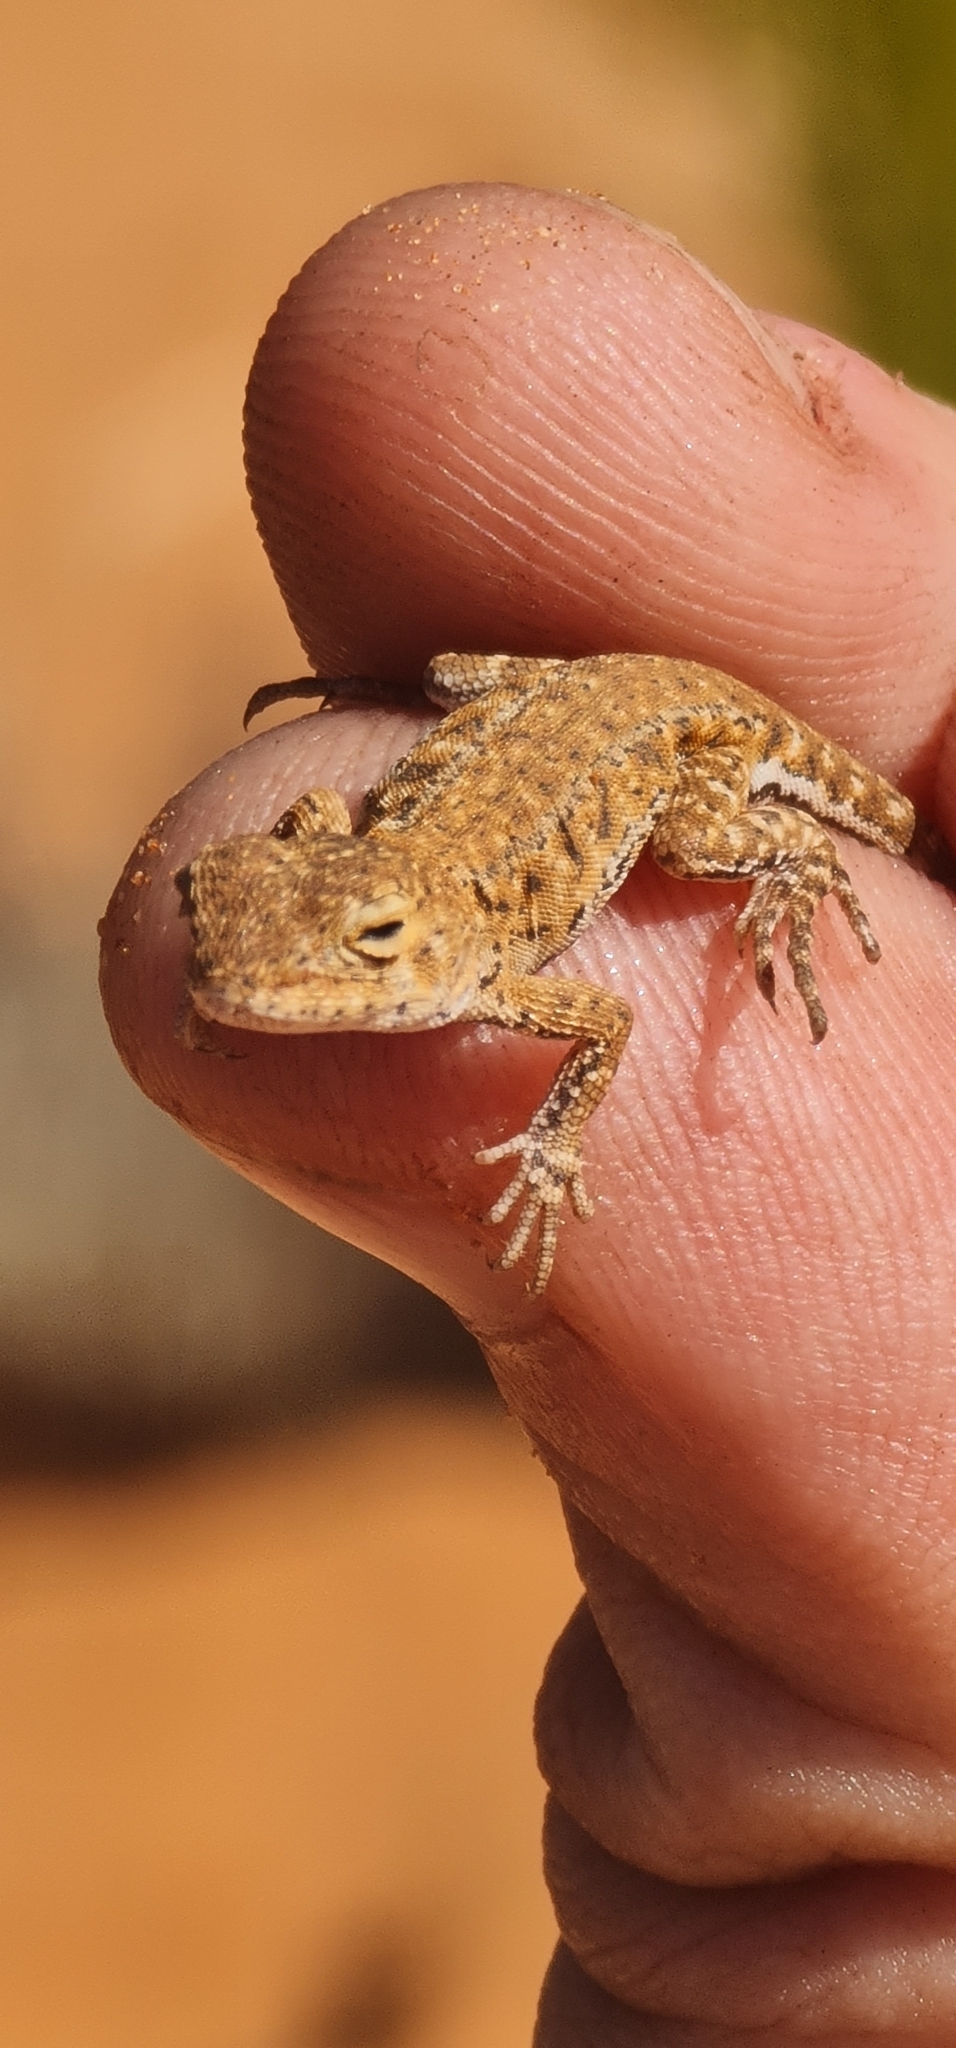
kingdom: Animalia
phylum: Chordata
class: Squamata
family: Agamidae
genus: Ctenophorus
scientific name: Ctenophorus spinodomus
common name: Eastern mallee dragon
